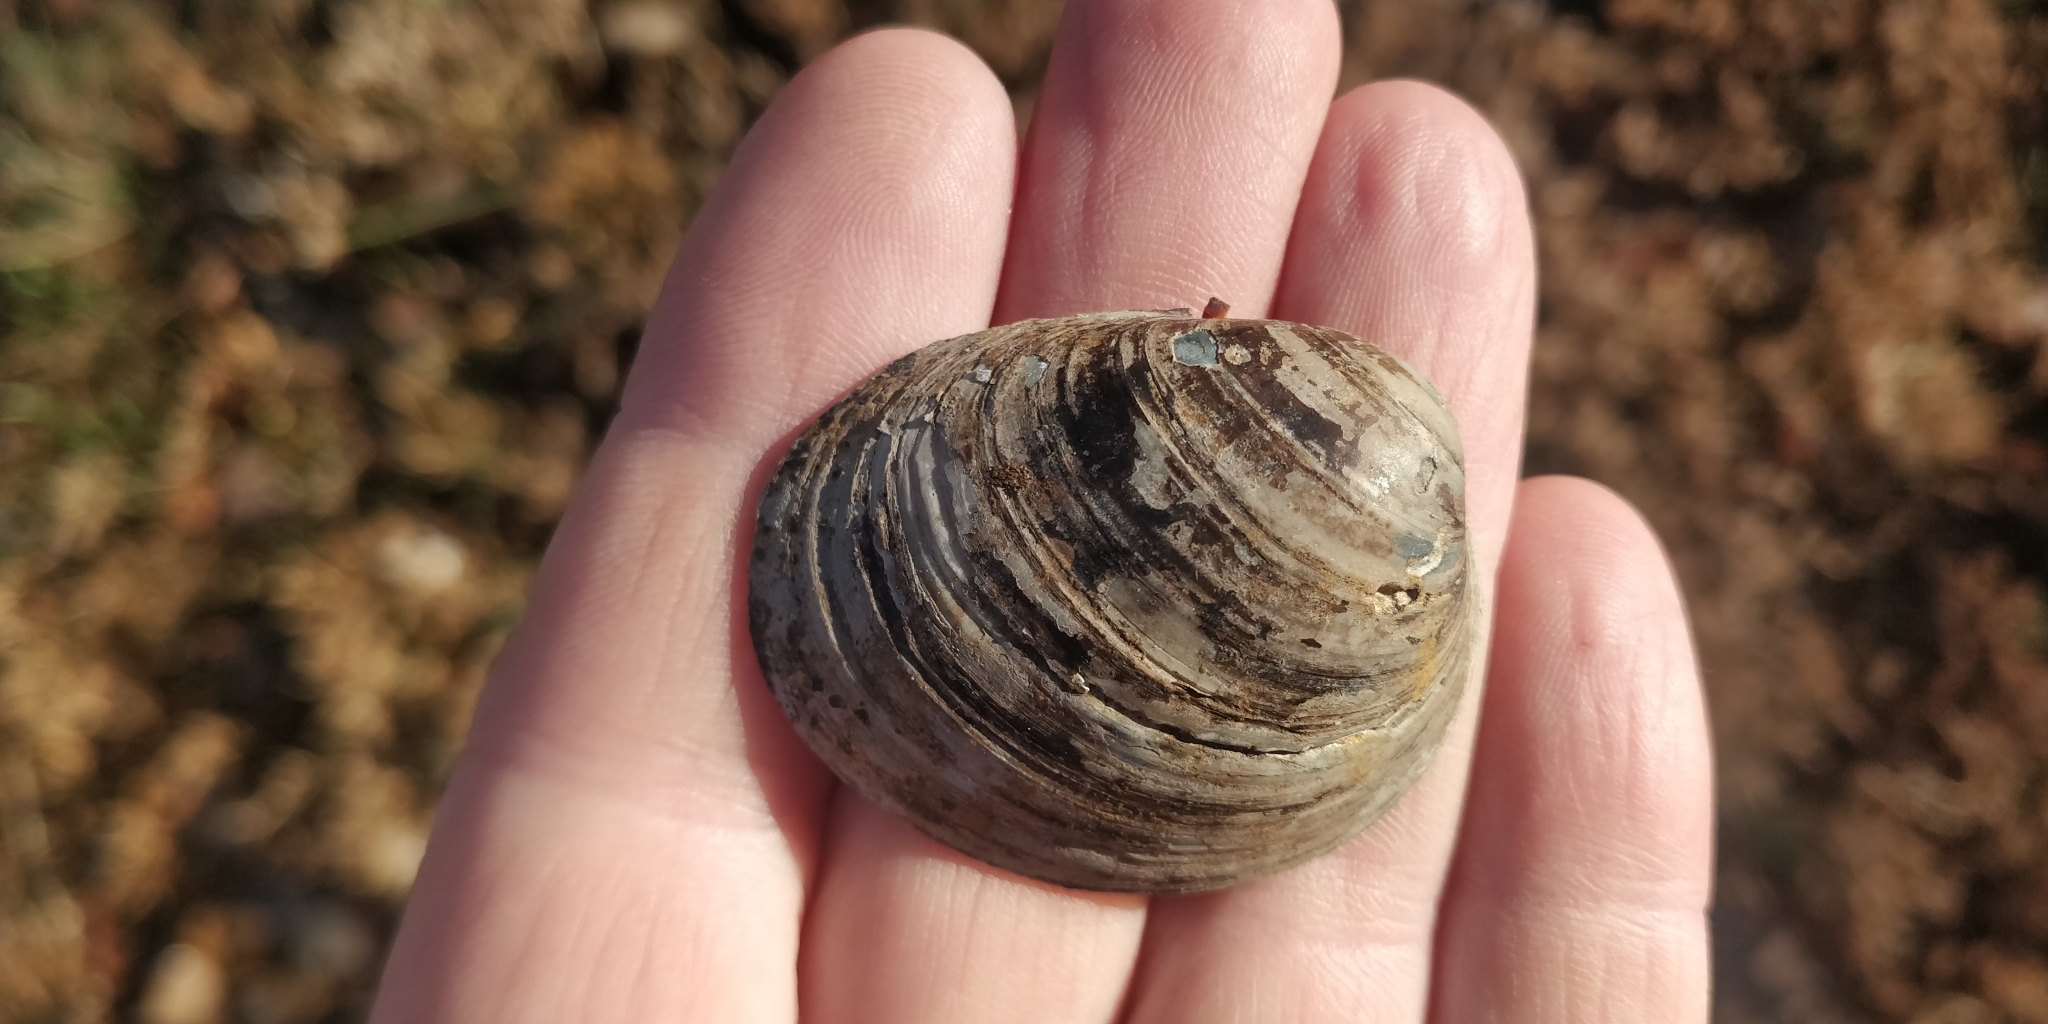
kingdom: Animalia
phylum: Mollusca
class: Bivalvia
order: Unionida
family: Unionidae
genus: Obovaria
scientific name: Obovaria olivaria
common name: Hickorynut
